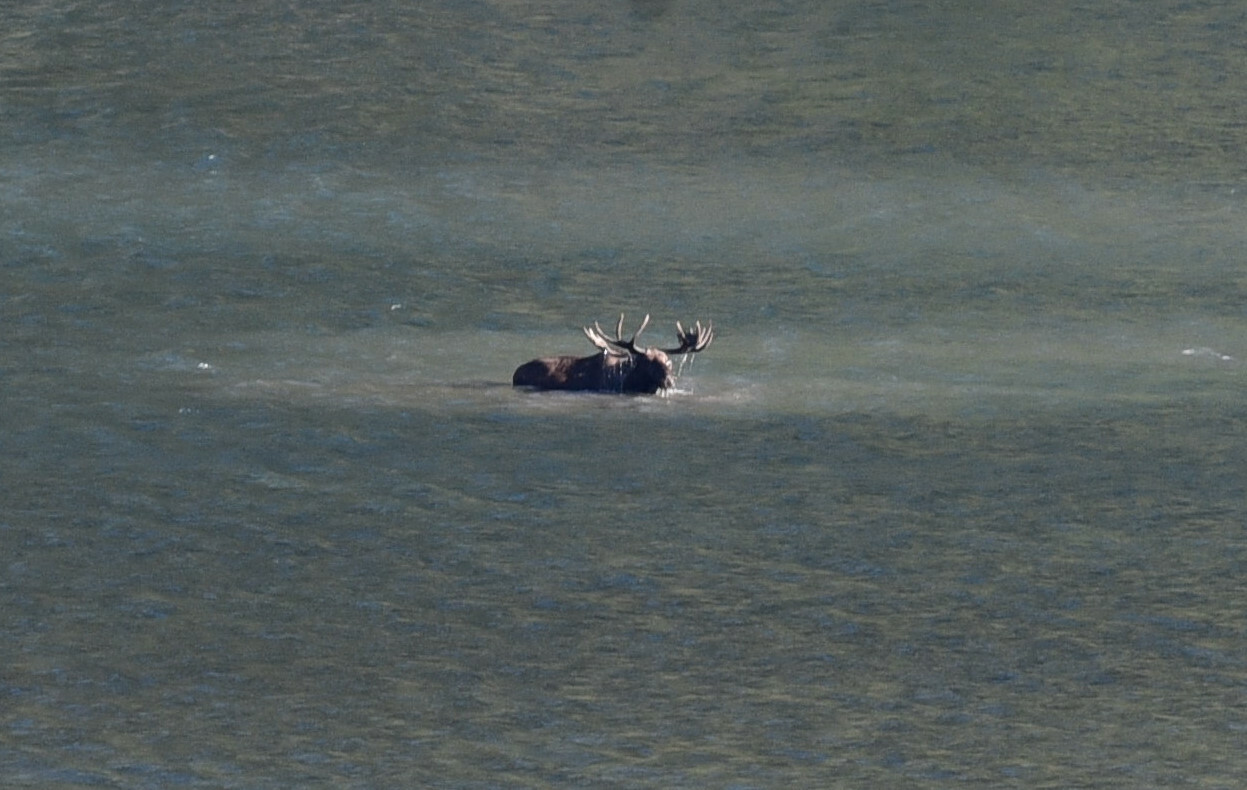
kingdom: Animalia
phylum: Chordata
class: Mammalia
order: Artiodactyla
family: Cervidae
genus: Alces
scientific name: Alces americanus
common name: Moose
